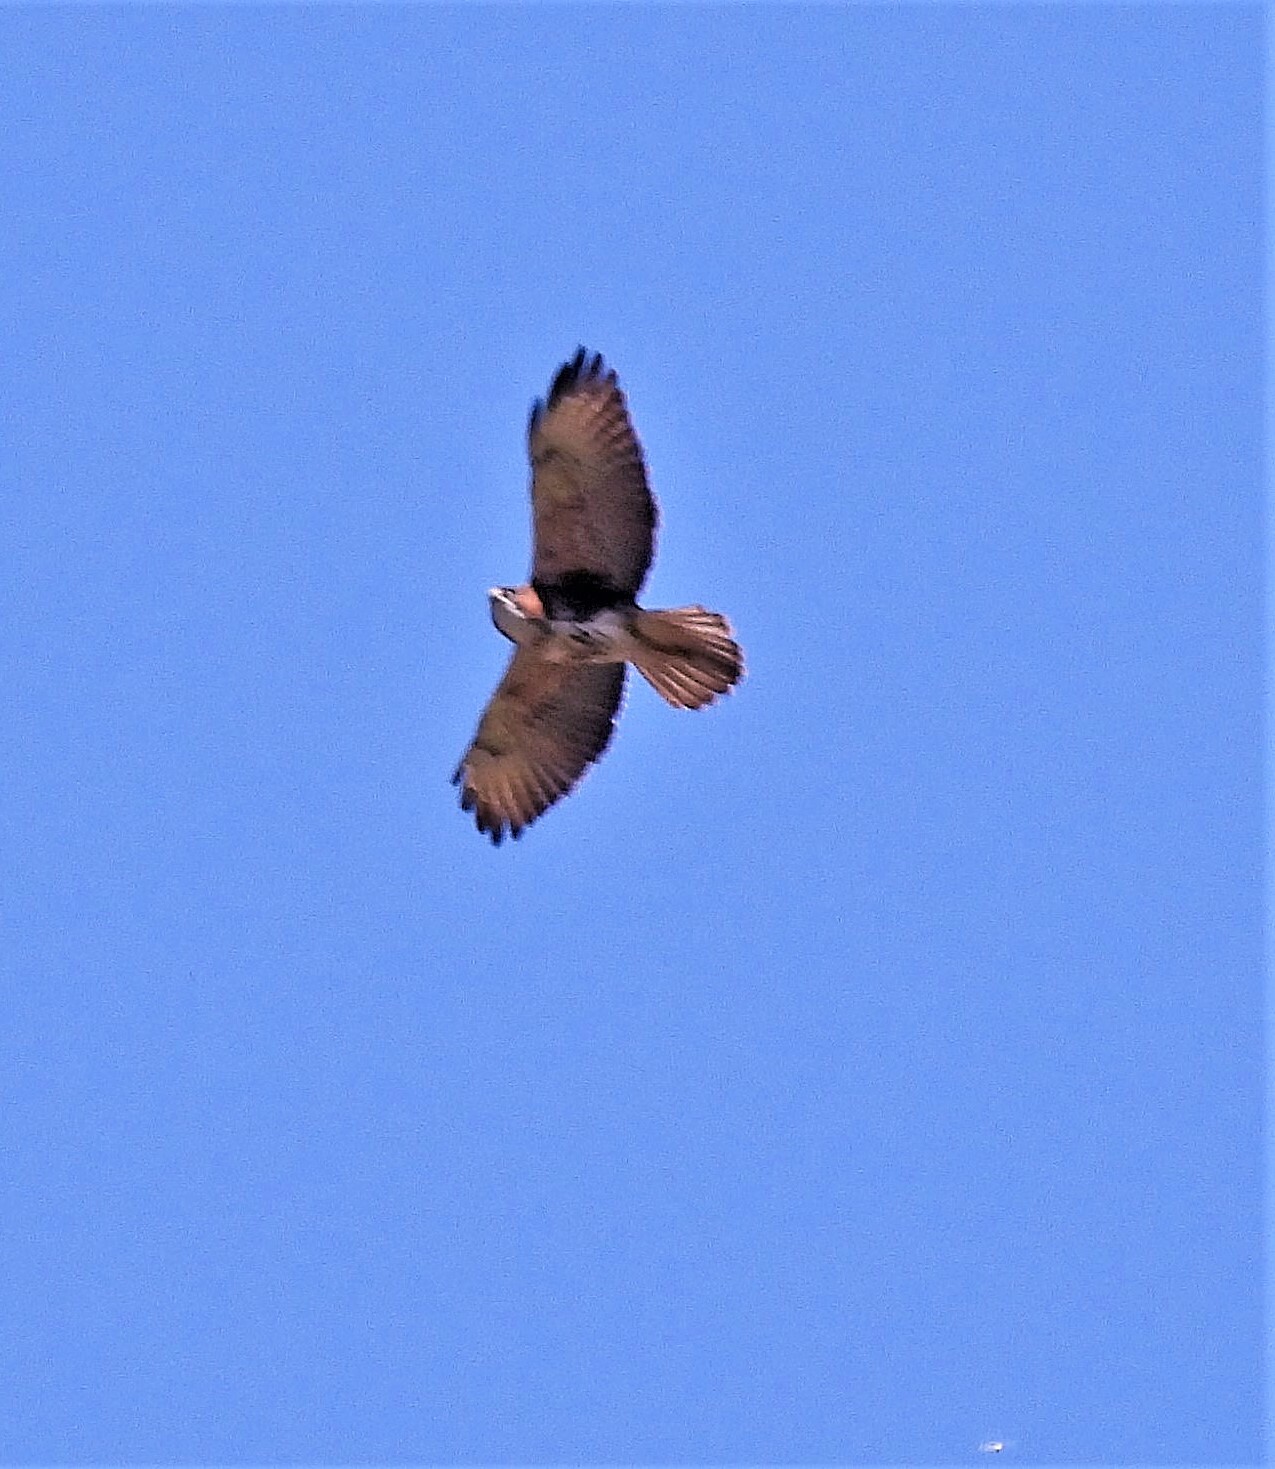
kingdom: Animalia
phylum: Chordata
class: Aves
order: Accipitriformes
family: Accipitridae
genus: Buteo
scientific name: Buteo albigula
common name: White-throated hawk
